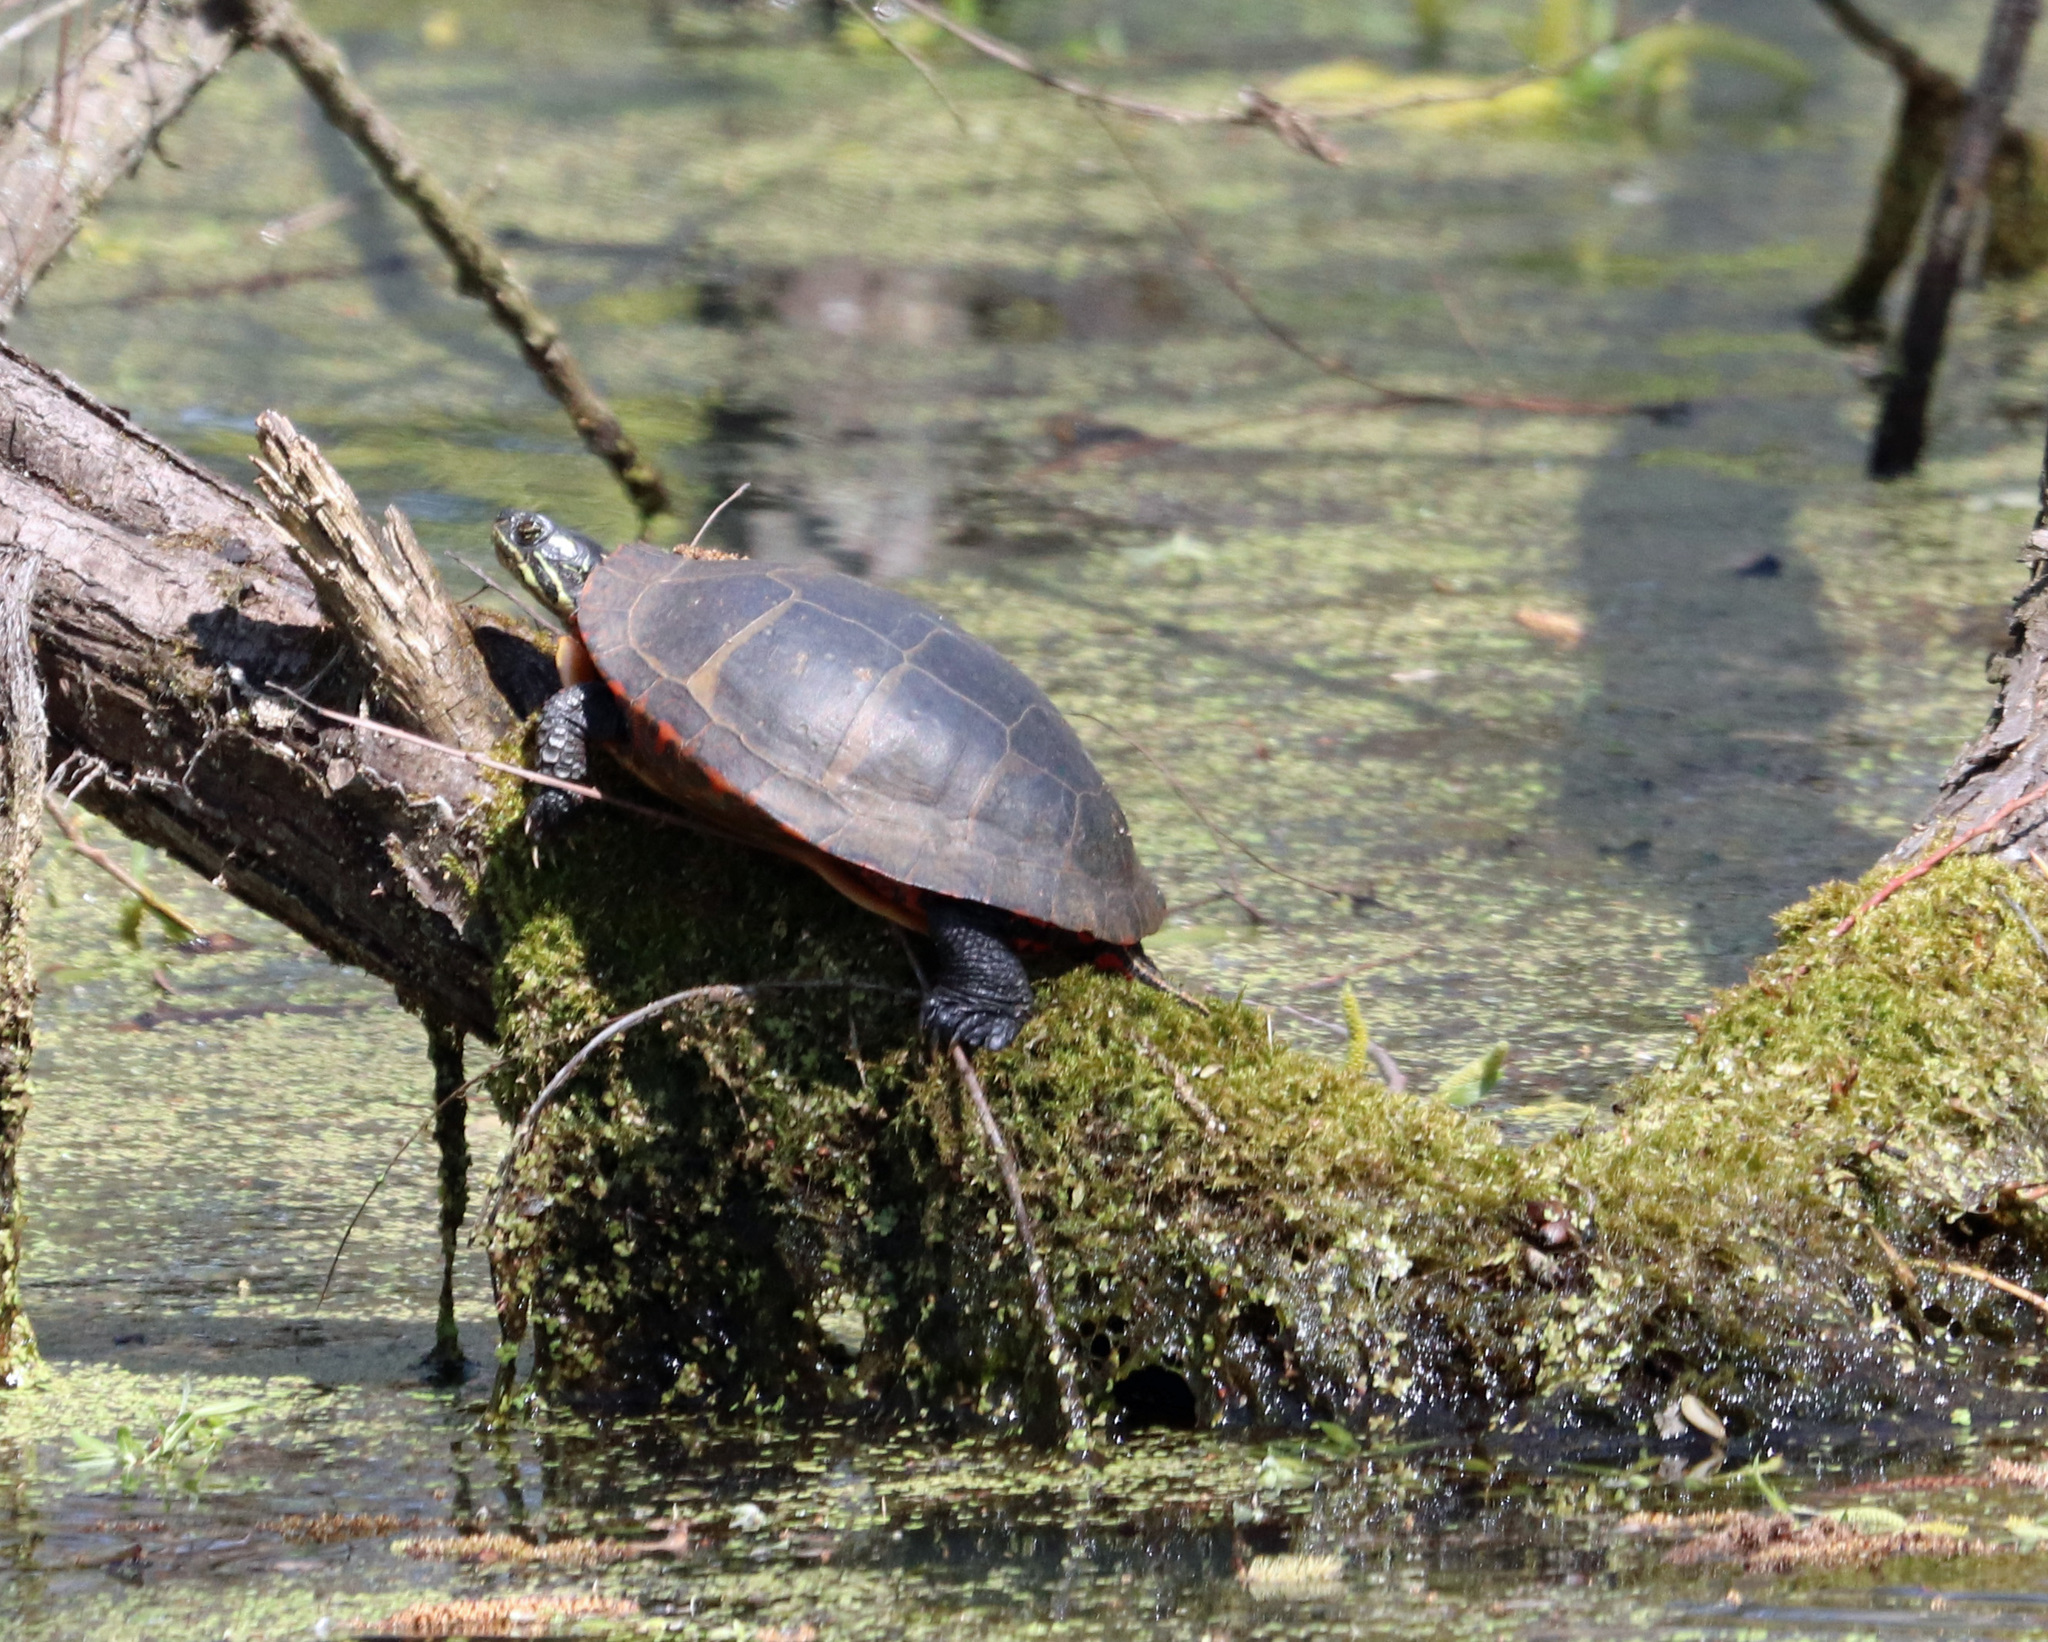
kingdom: Animalia
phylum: Chordata
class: Testudines
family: Emydidae
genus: Chrysemys
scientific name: Chrysemys picta
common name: Painted turtle
